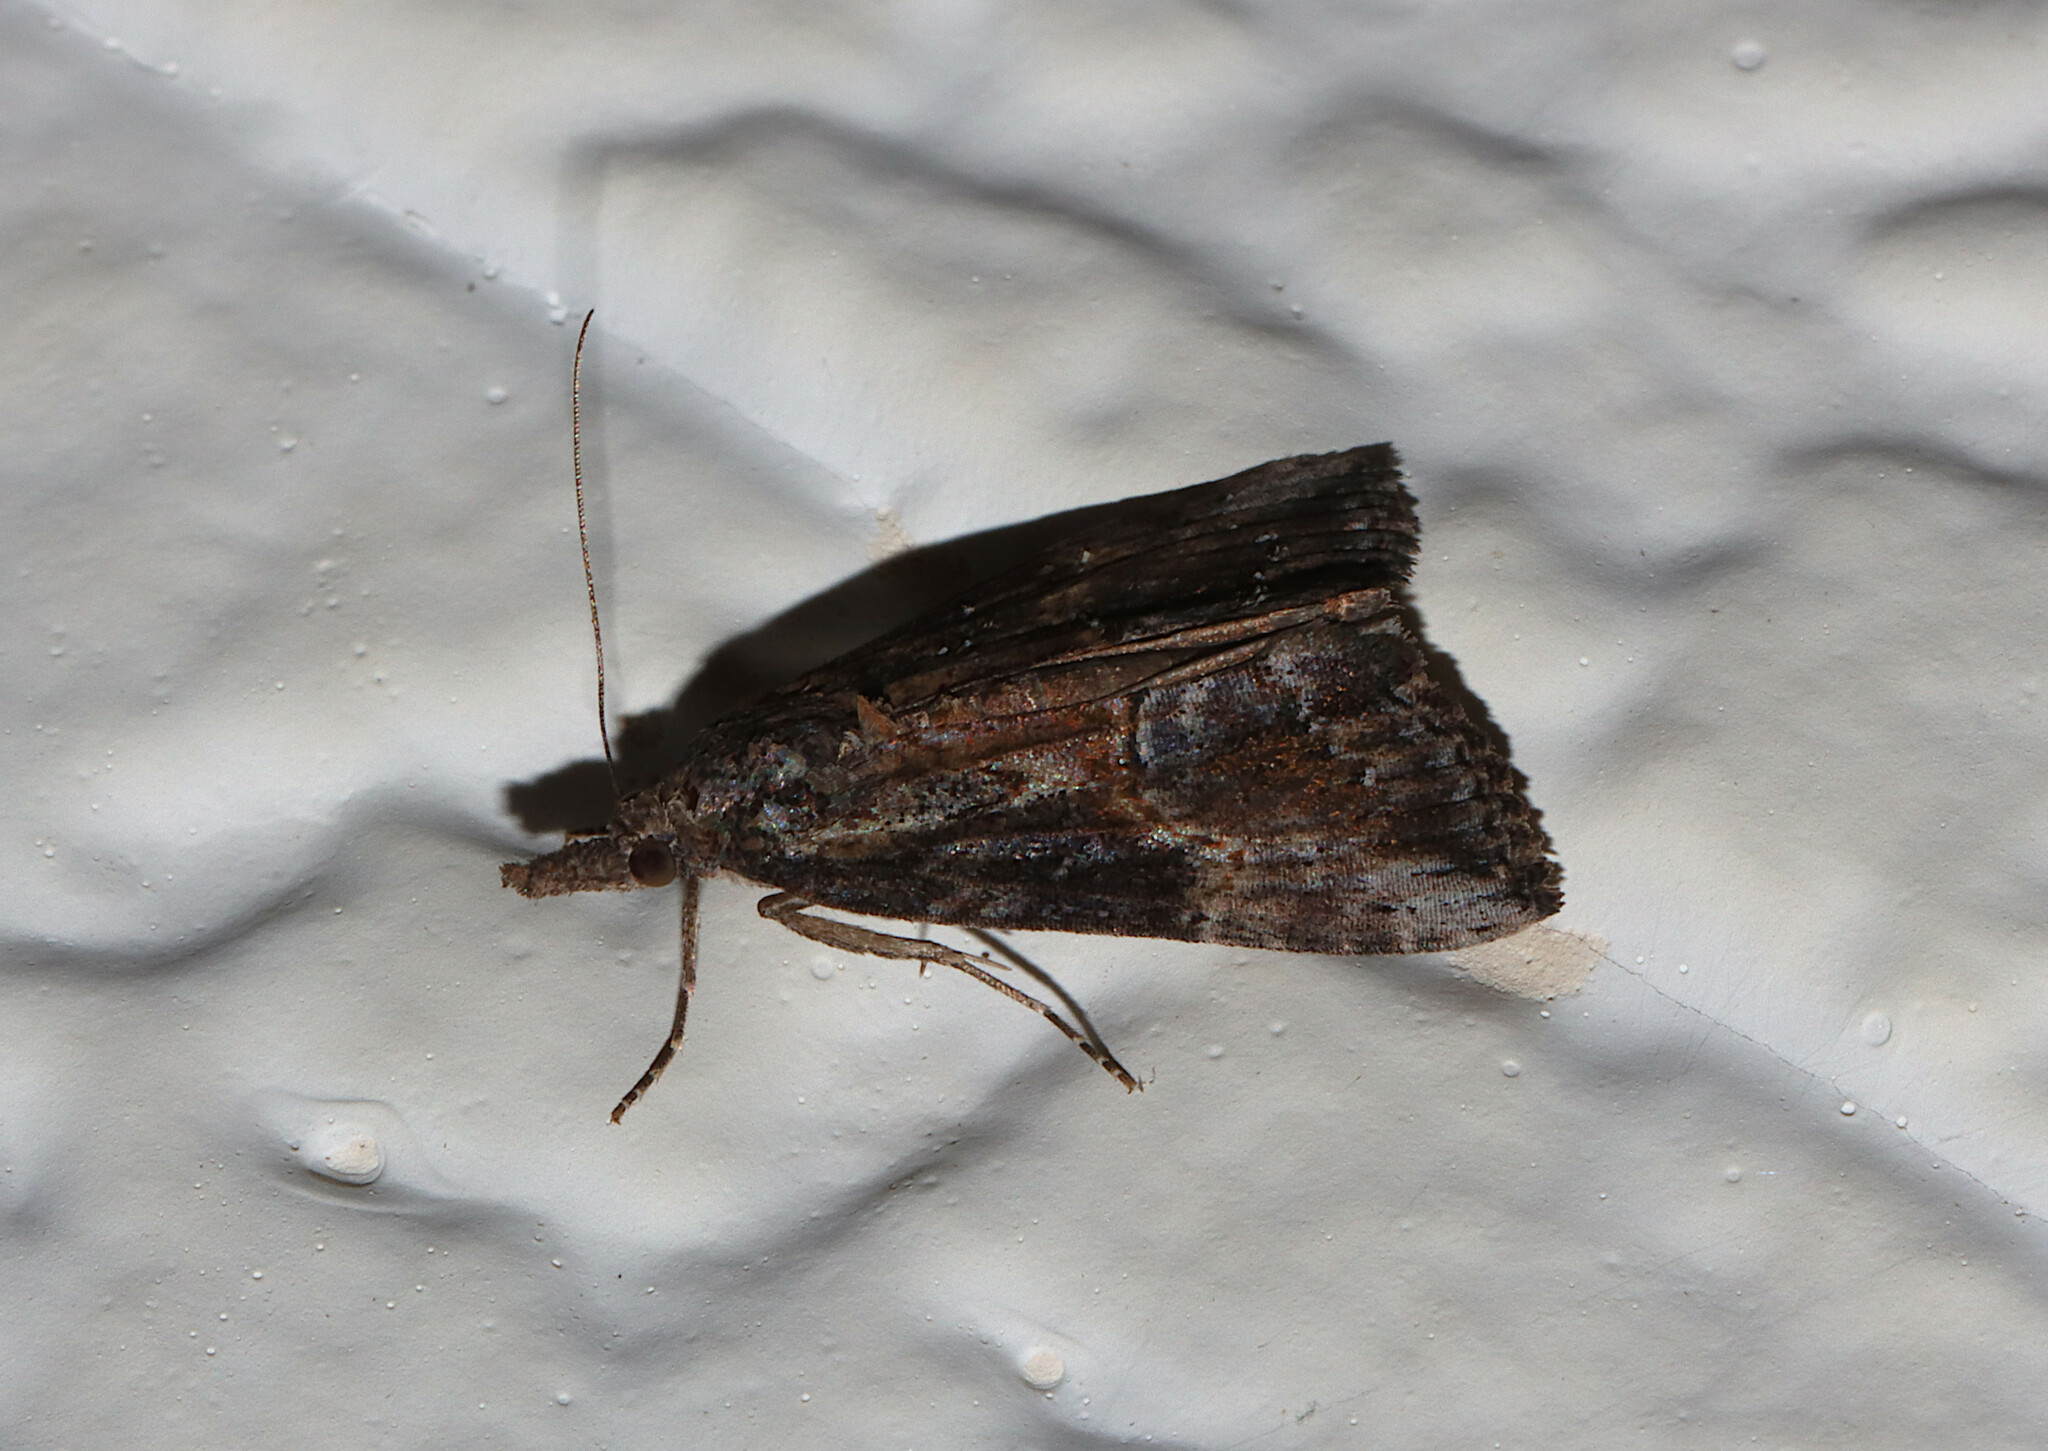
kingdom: Animalia
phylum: Arthropoda
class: Insecta
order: Lepidoptera
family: Erebidae
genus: Hypena
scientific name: Hypena scabra
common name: Green cloverworm
